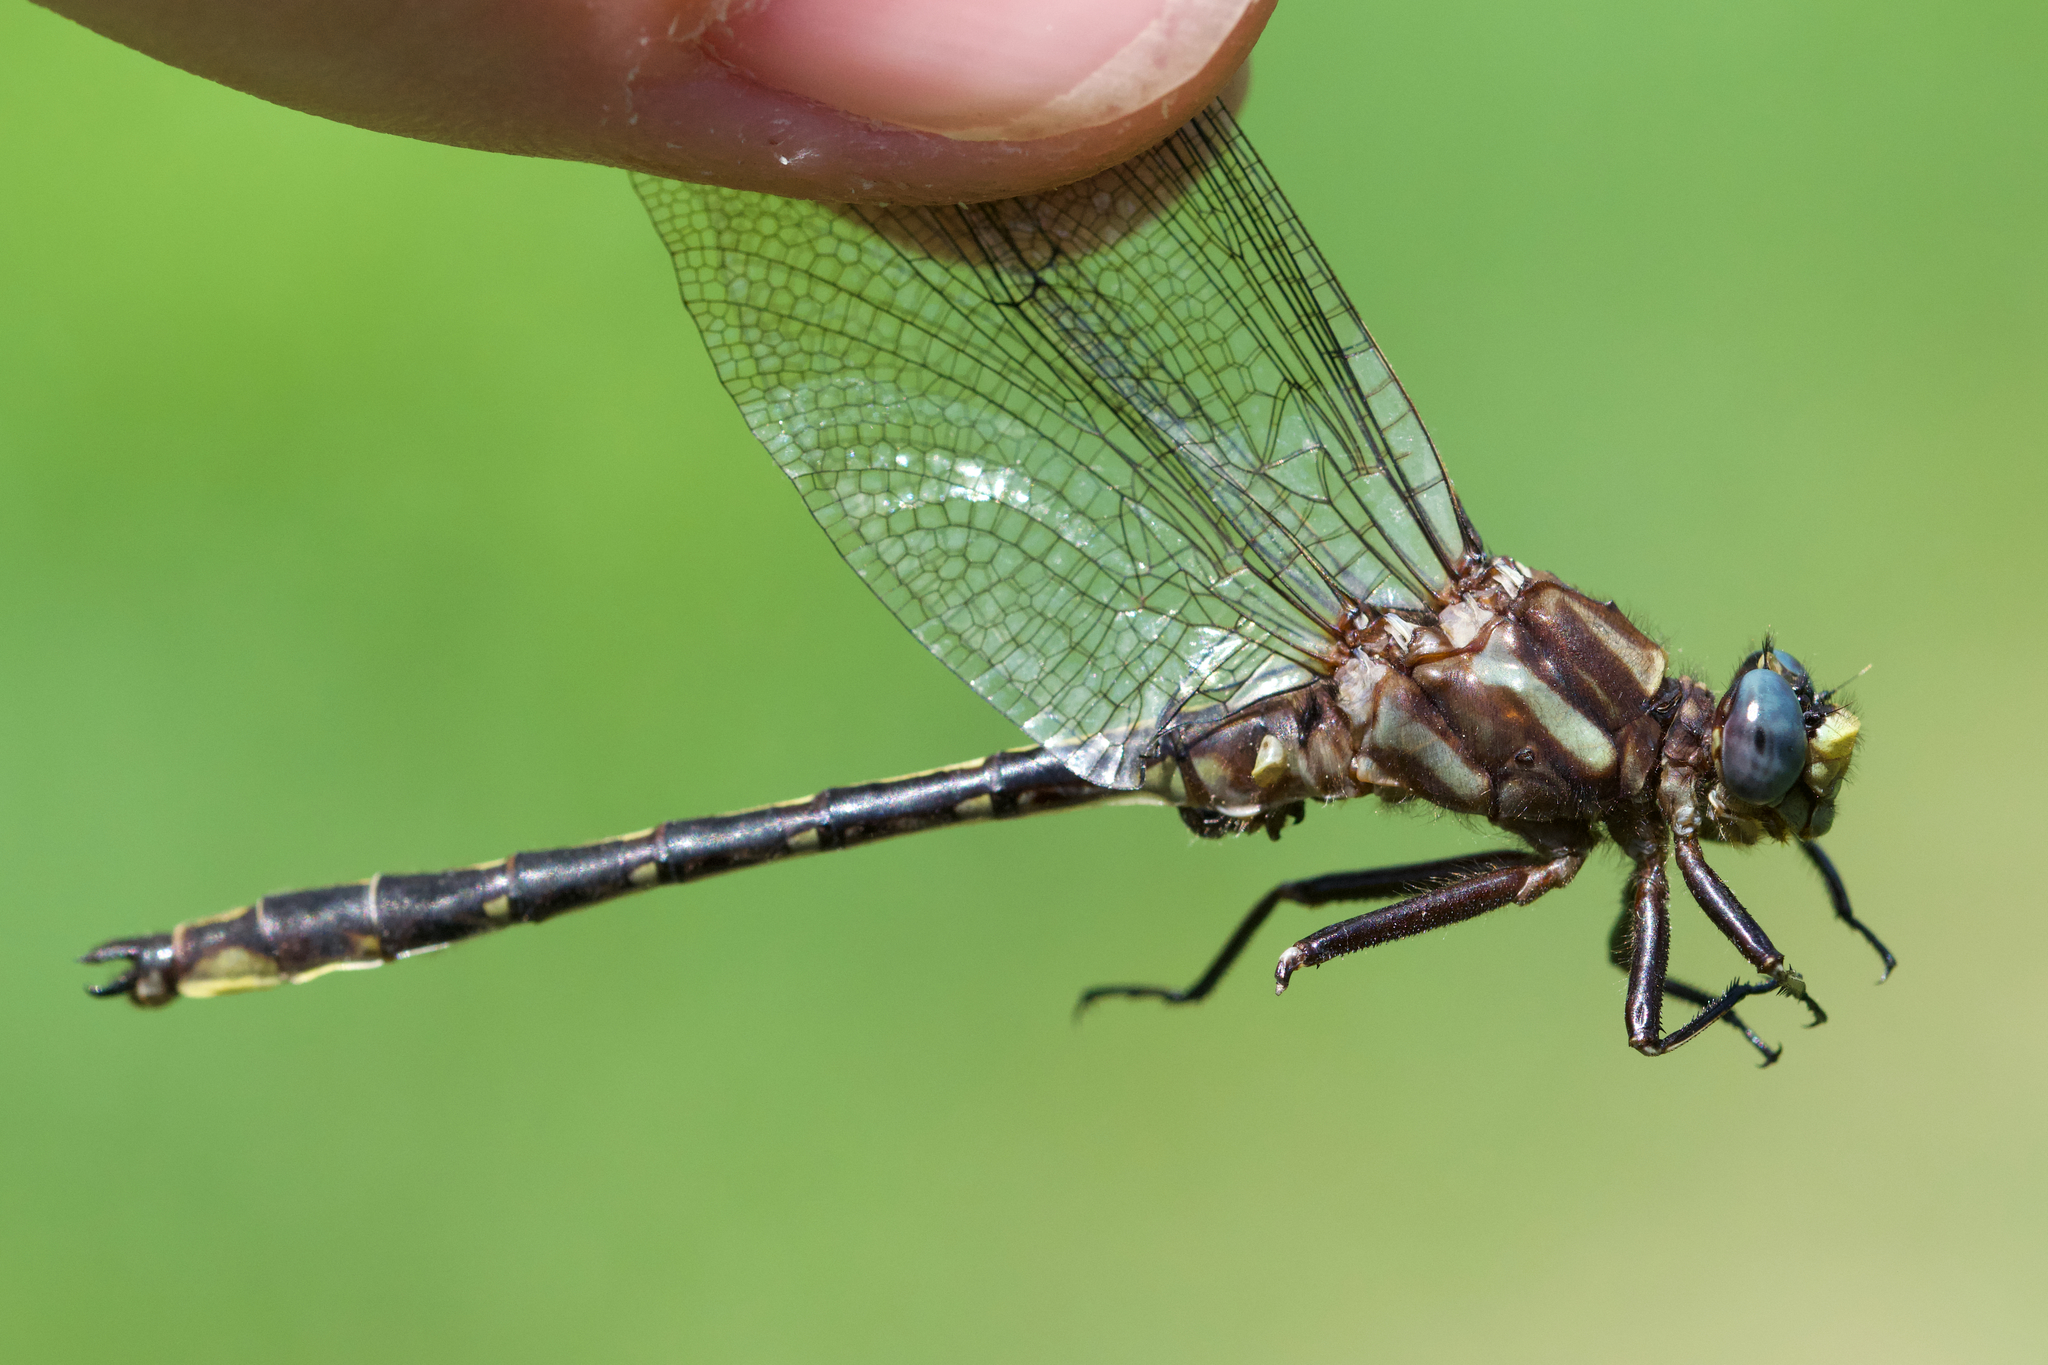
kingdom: Animalia
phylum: Arthropoda
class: Insecta
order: Odonata
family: Gomphidae
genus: Phanogomphus
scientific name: Phanogomphus lividus
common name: Ashy clubtail
